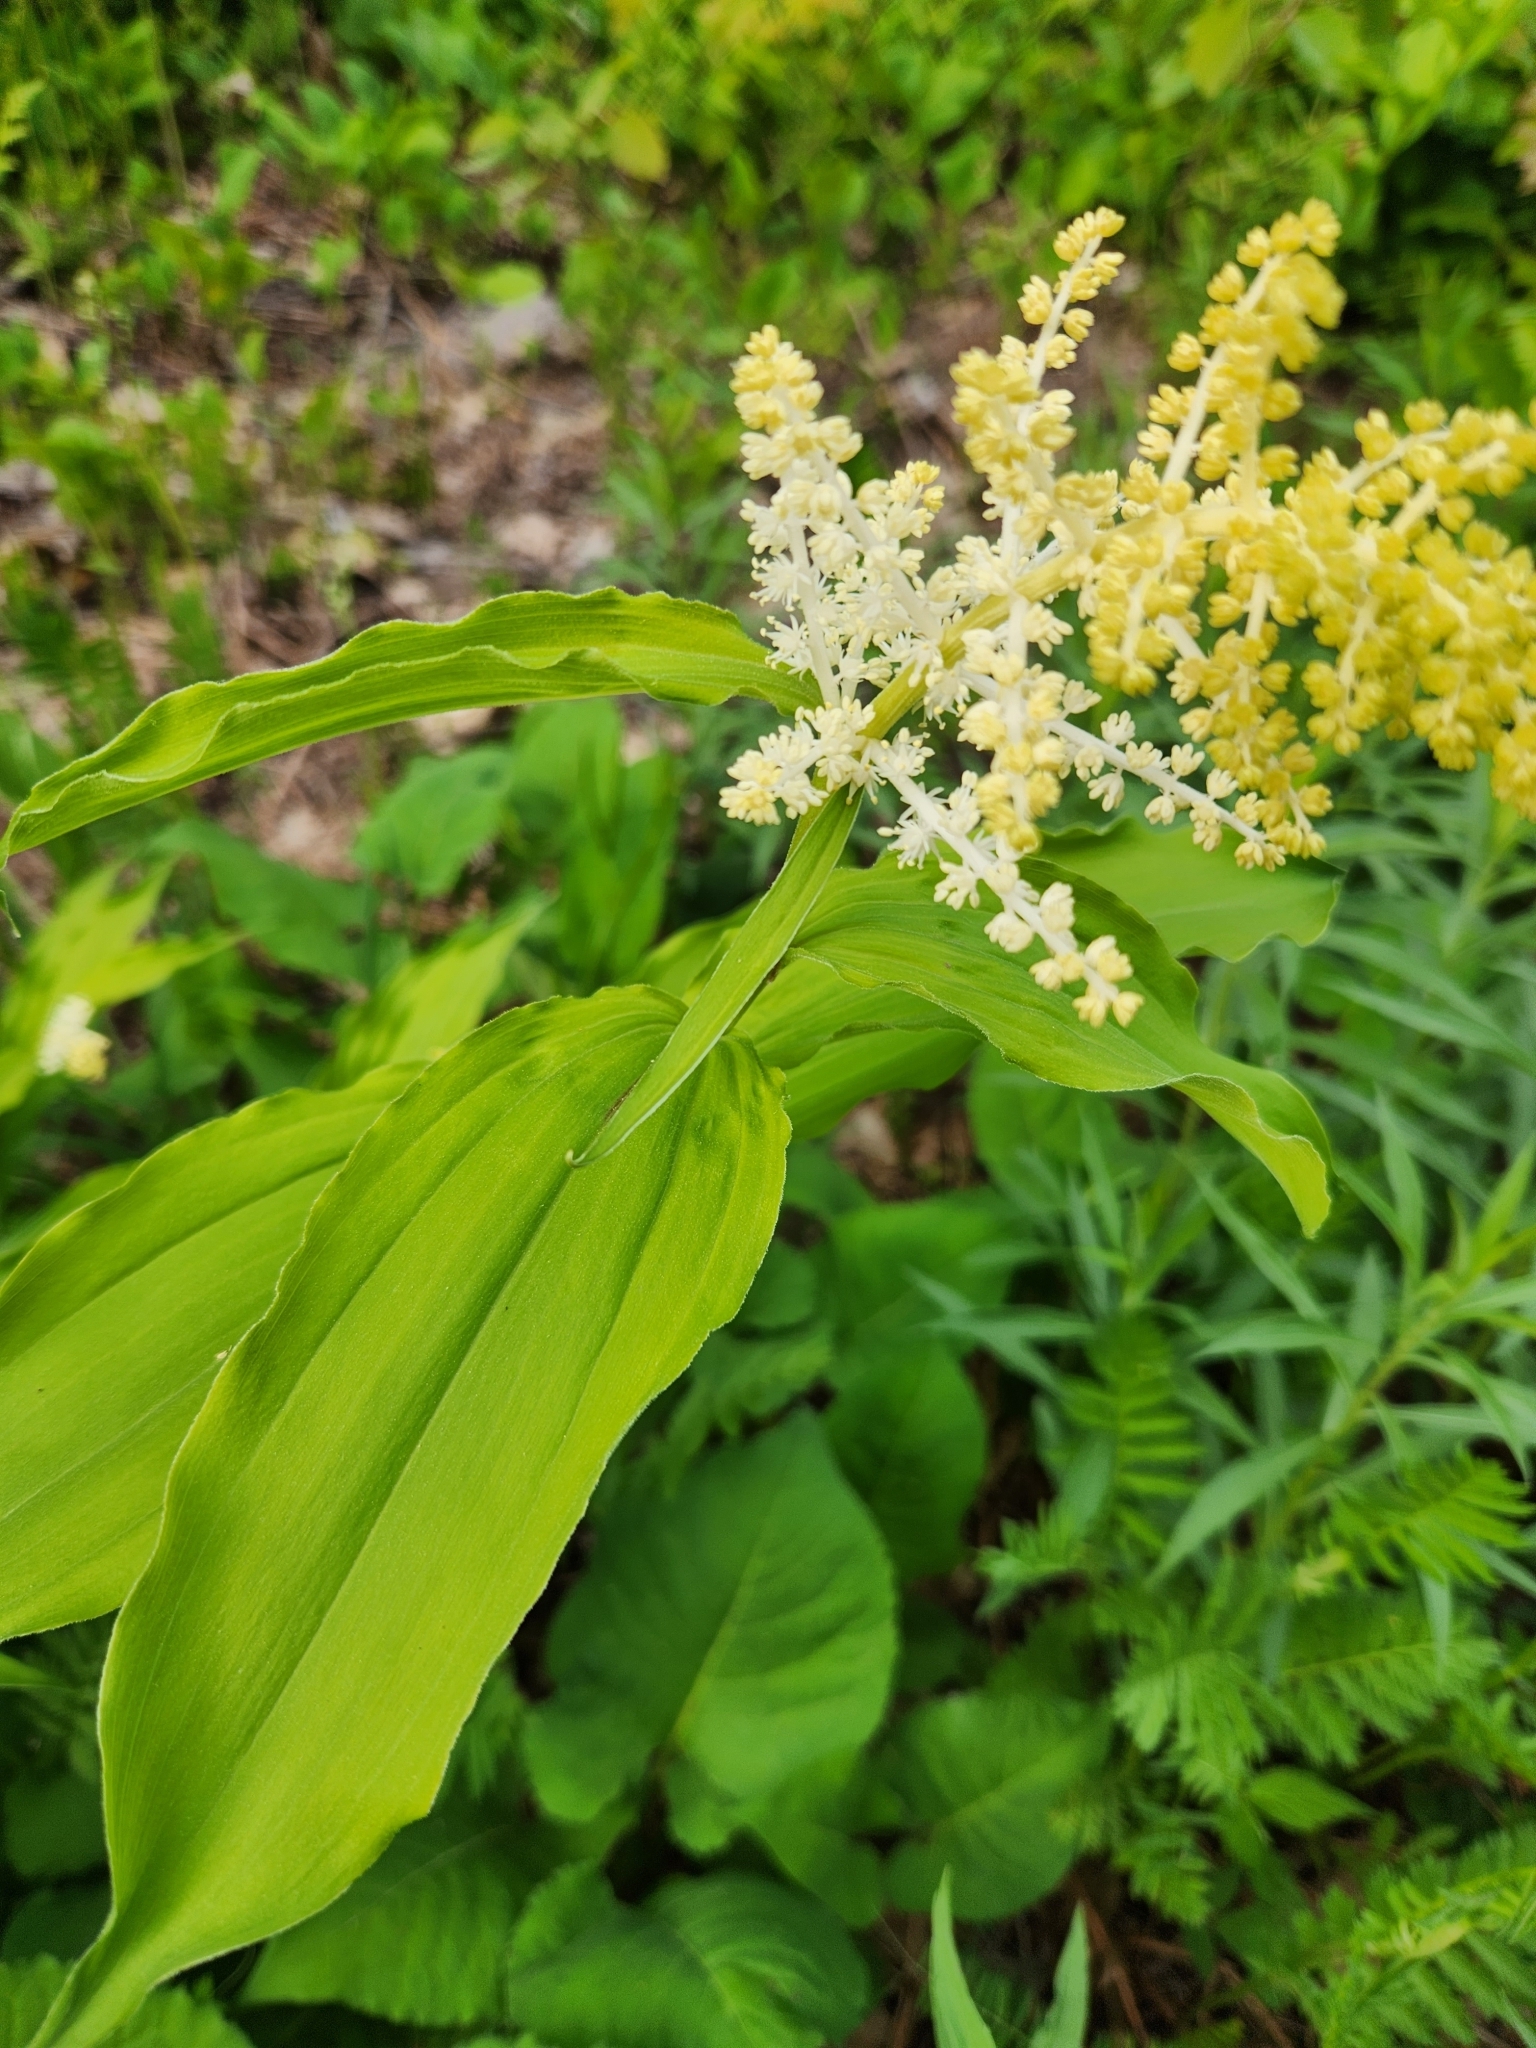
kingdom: Plantae
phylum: Tracheophyta
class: Liliopsida
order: Asparagales
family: Asparagaceae
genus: Maianthemum
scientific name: Maianthemum racemosum
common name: False spikenard
